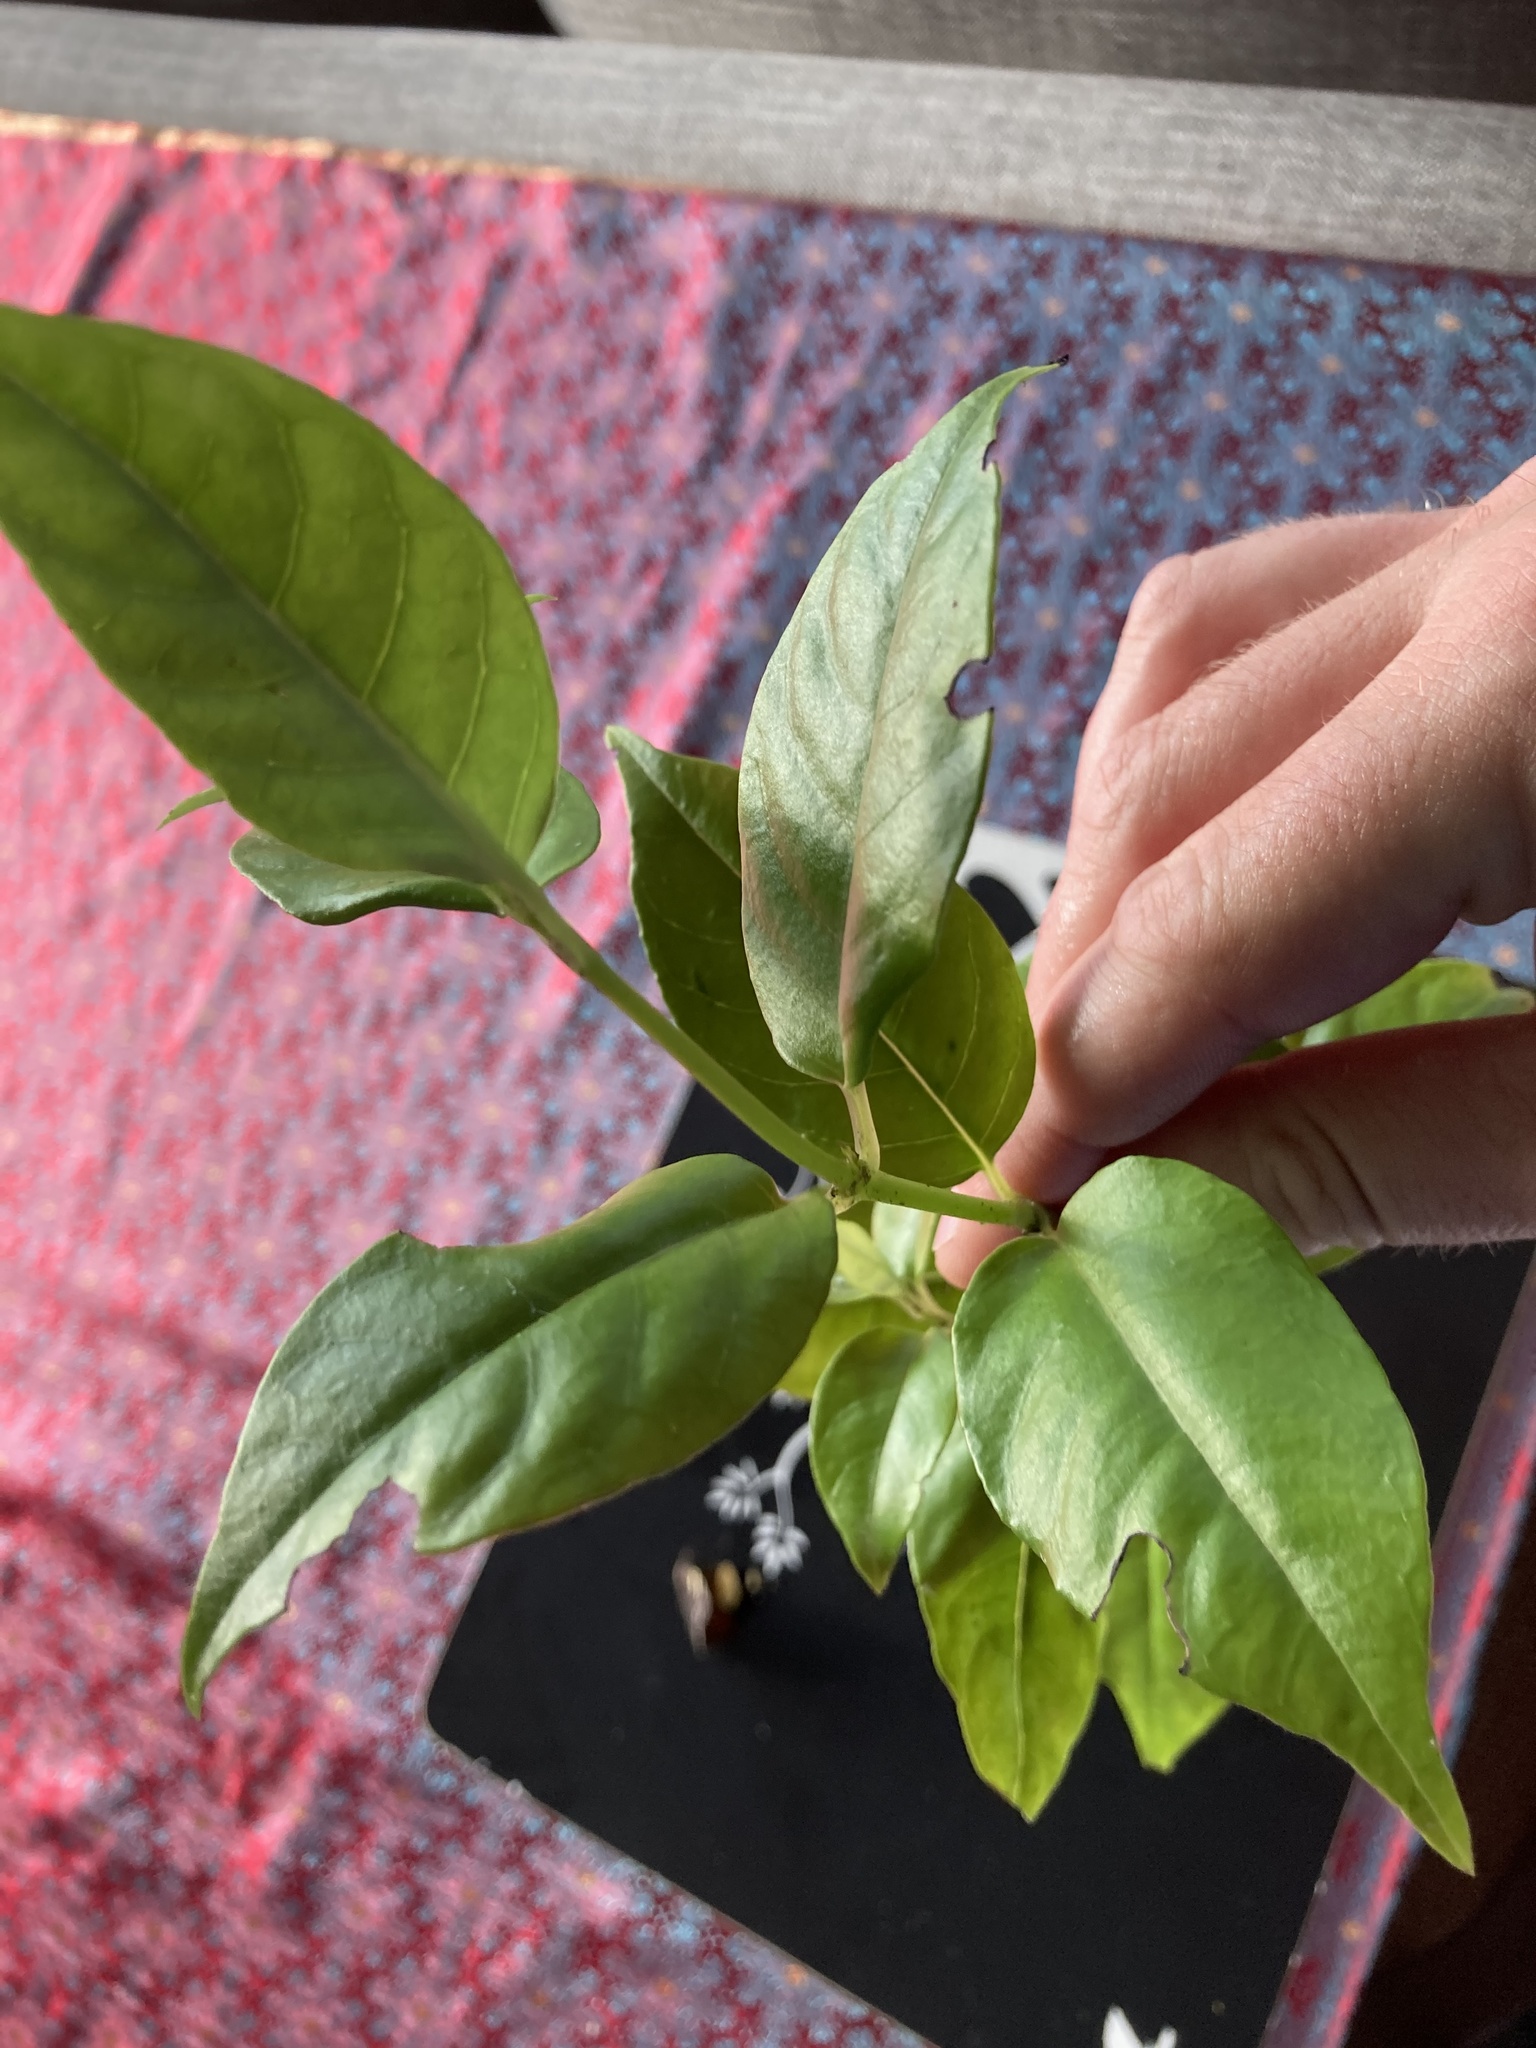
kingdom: Plantae
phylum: Tracheophyta
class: Magnoliopsida
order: Gentianales
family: Loganiaceae
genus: Geniostoma
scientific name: Geniostoma ligustrifolium
